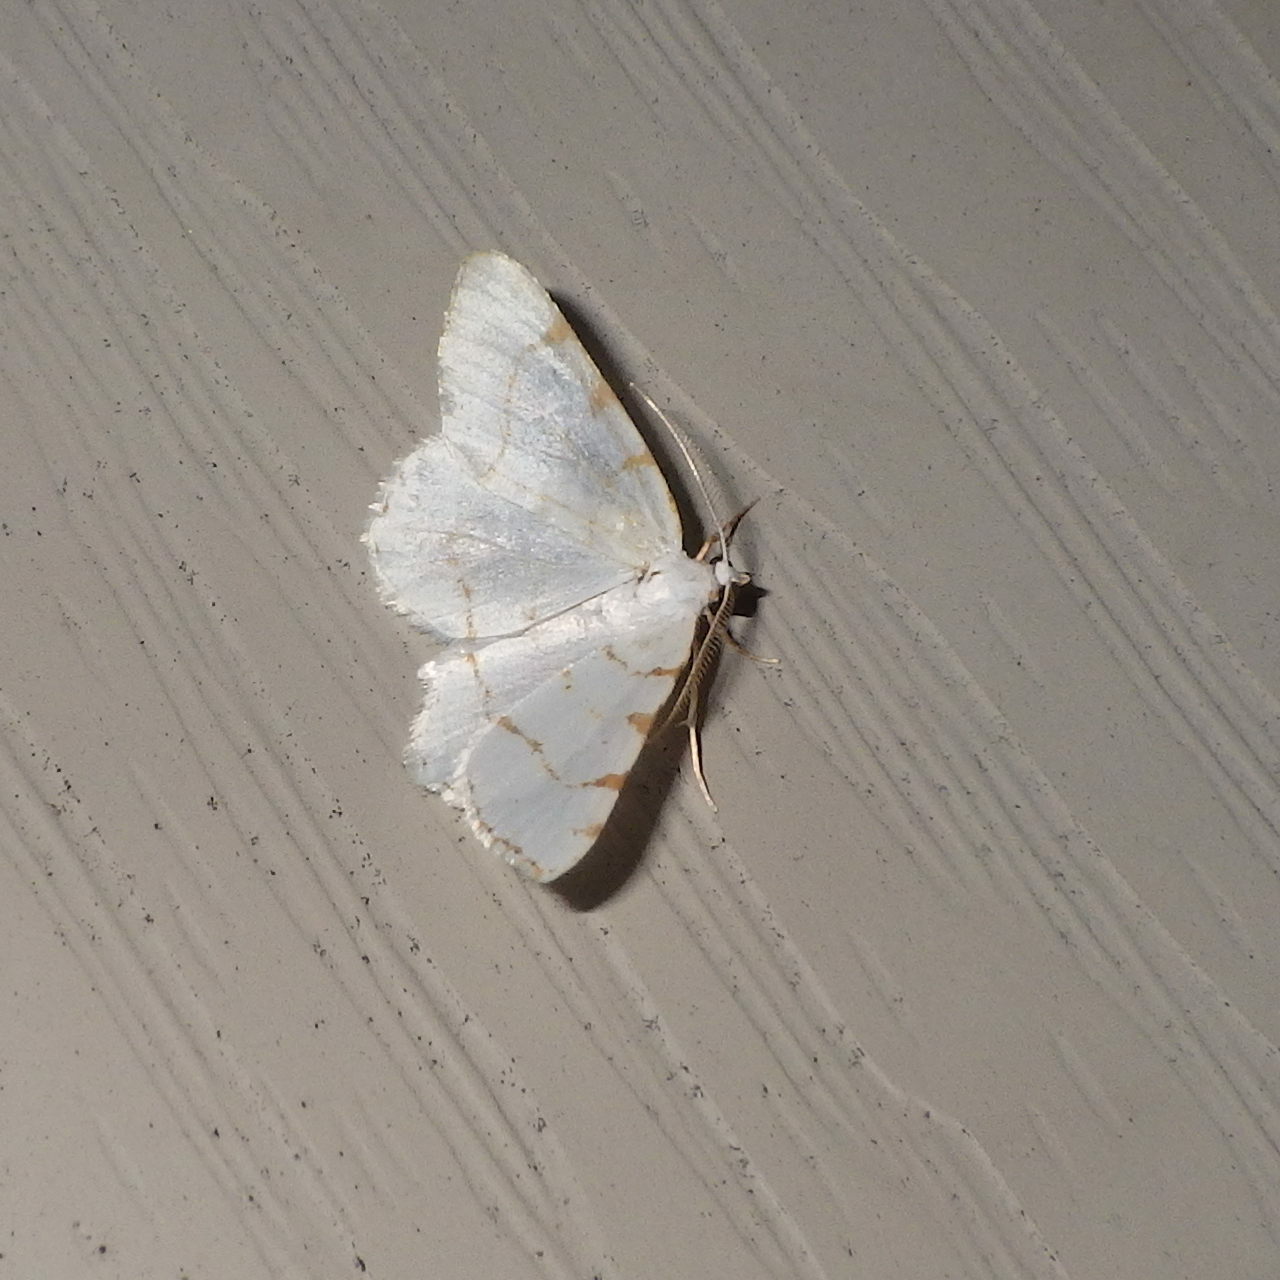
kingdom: Animalia
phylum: Arthropoda
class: Insecta
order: Lepidoptera
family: Geometridae
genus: Macaria
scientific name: Macaria pustularia
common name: Lesser maple spanworm moth
